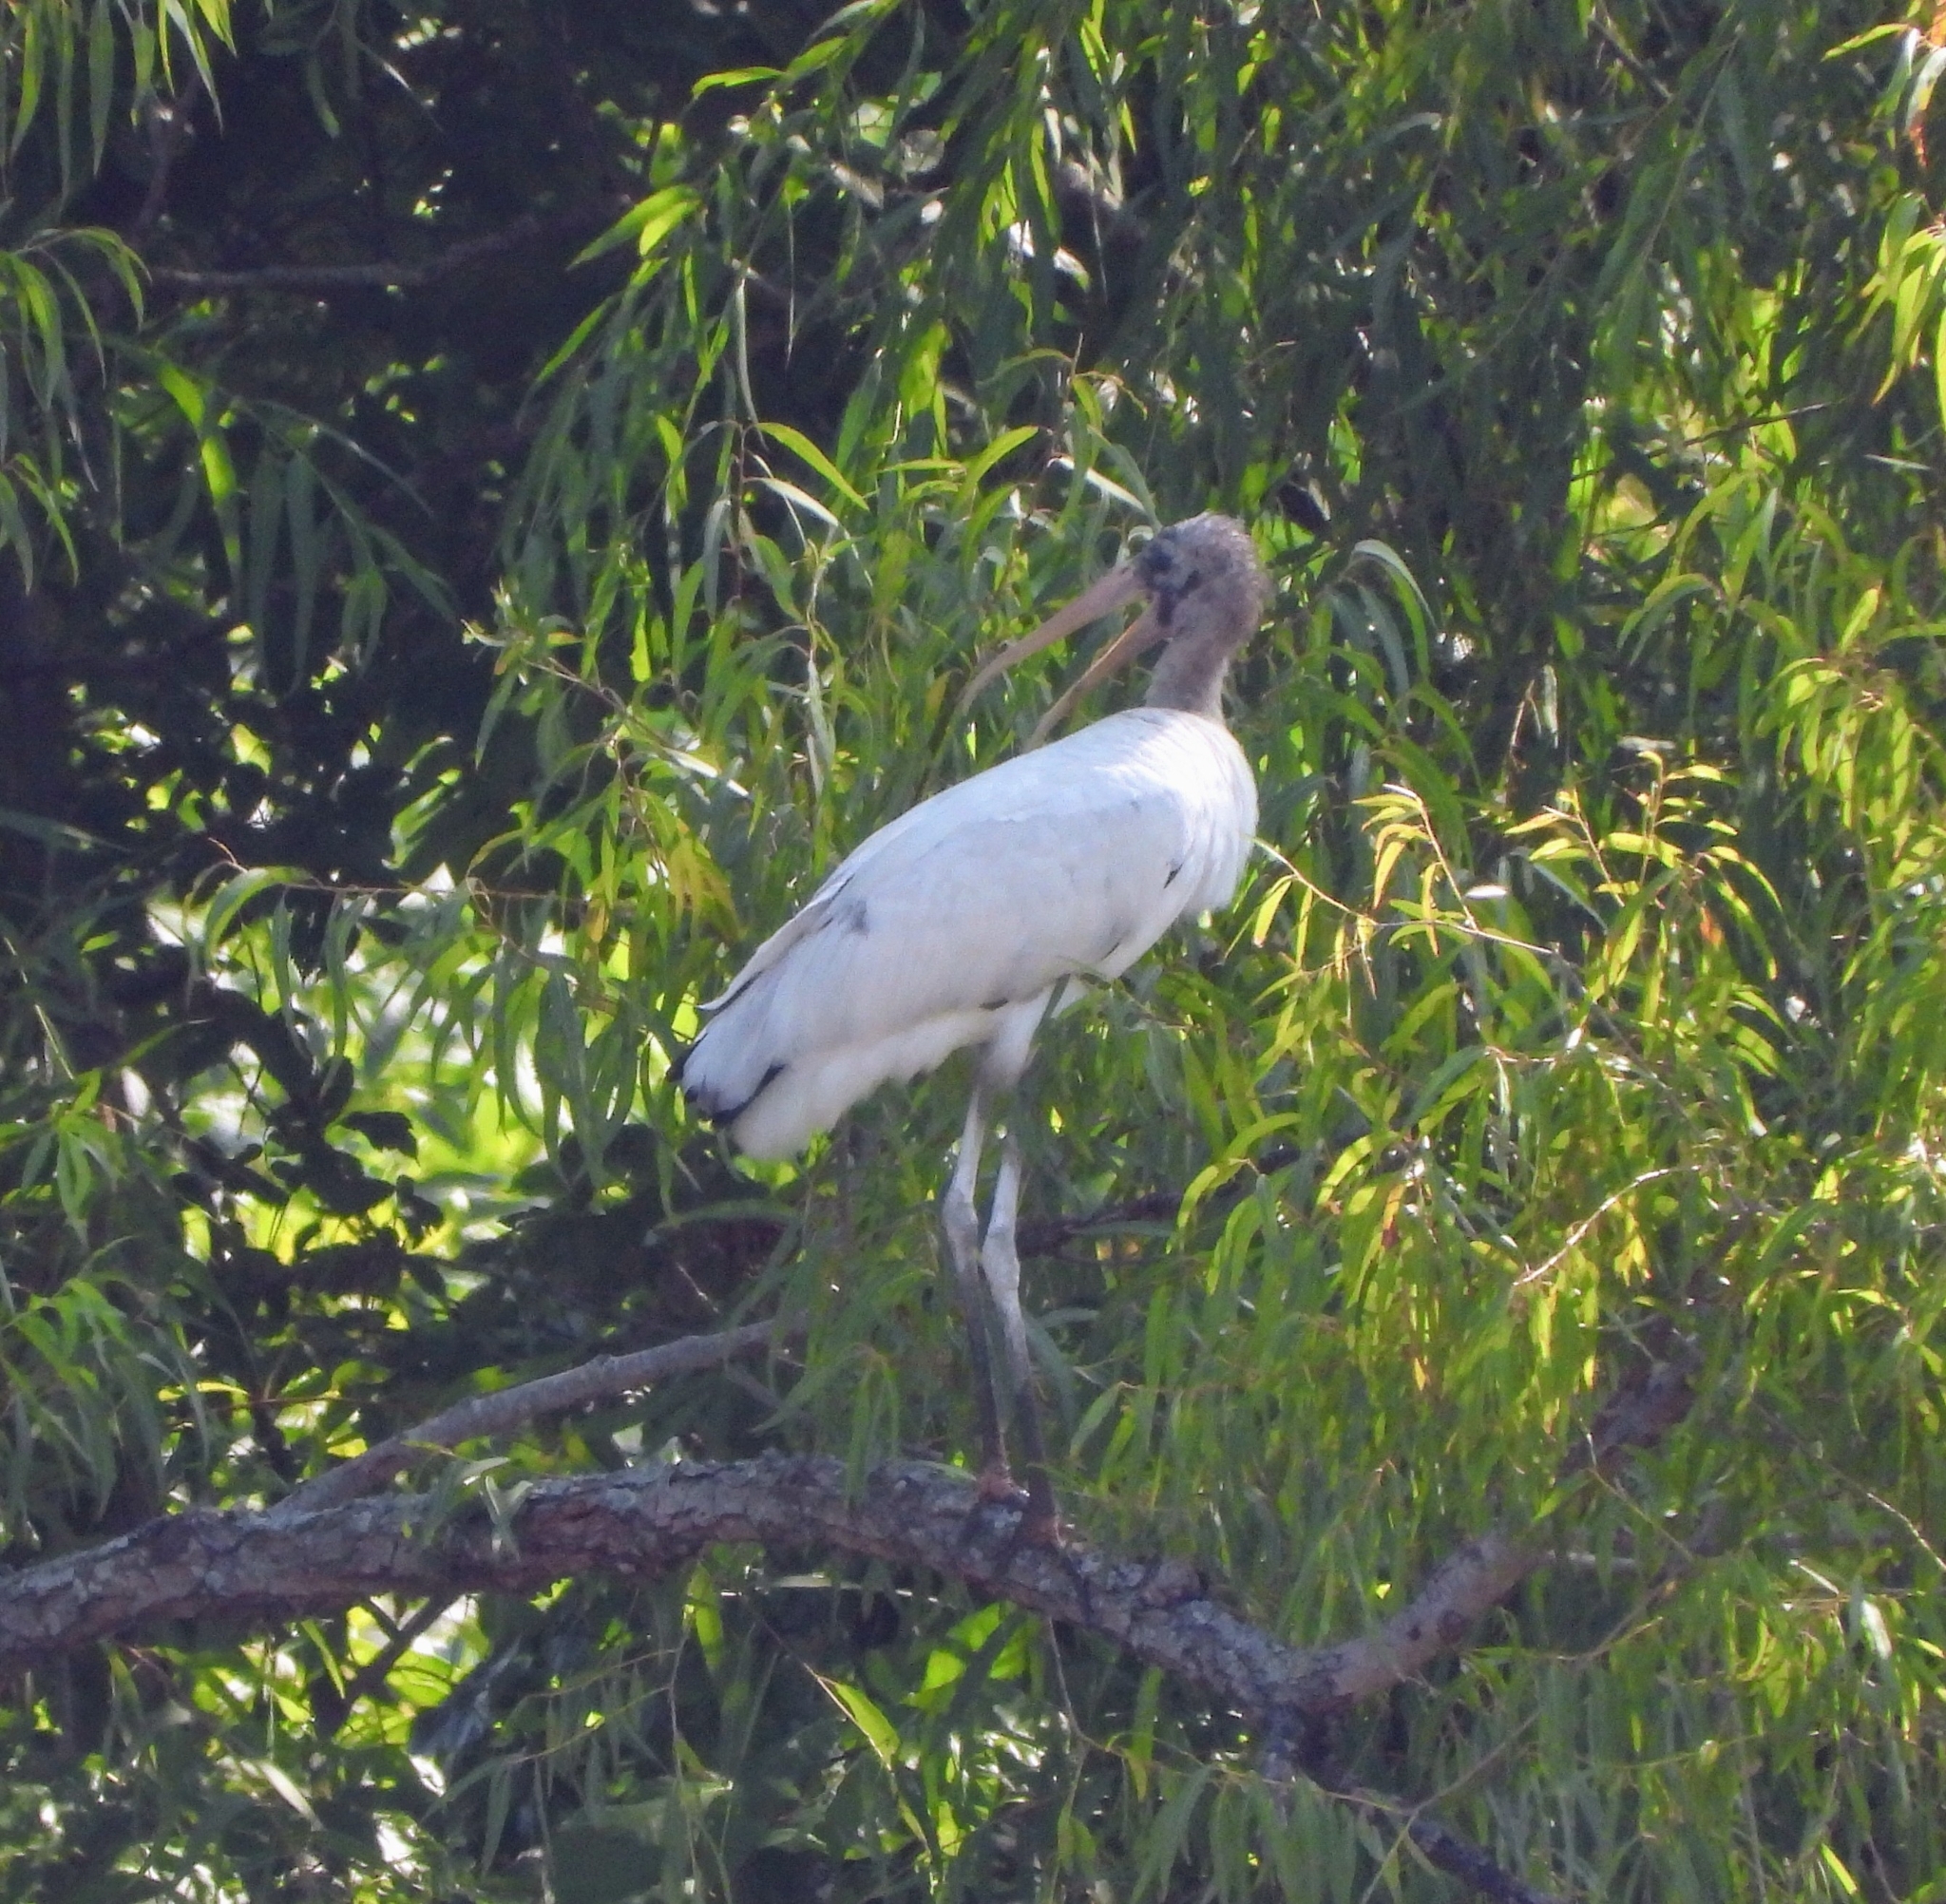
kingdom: Animalia
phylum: Chordata
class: Aves
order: Ciconiiformes
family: Ciconiidae
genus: Mycteria
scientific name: Mycteria americana
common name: Wood stork
